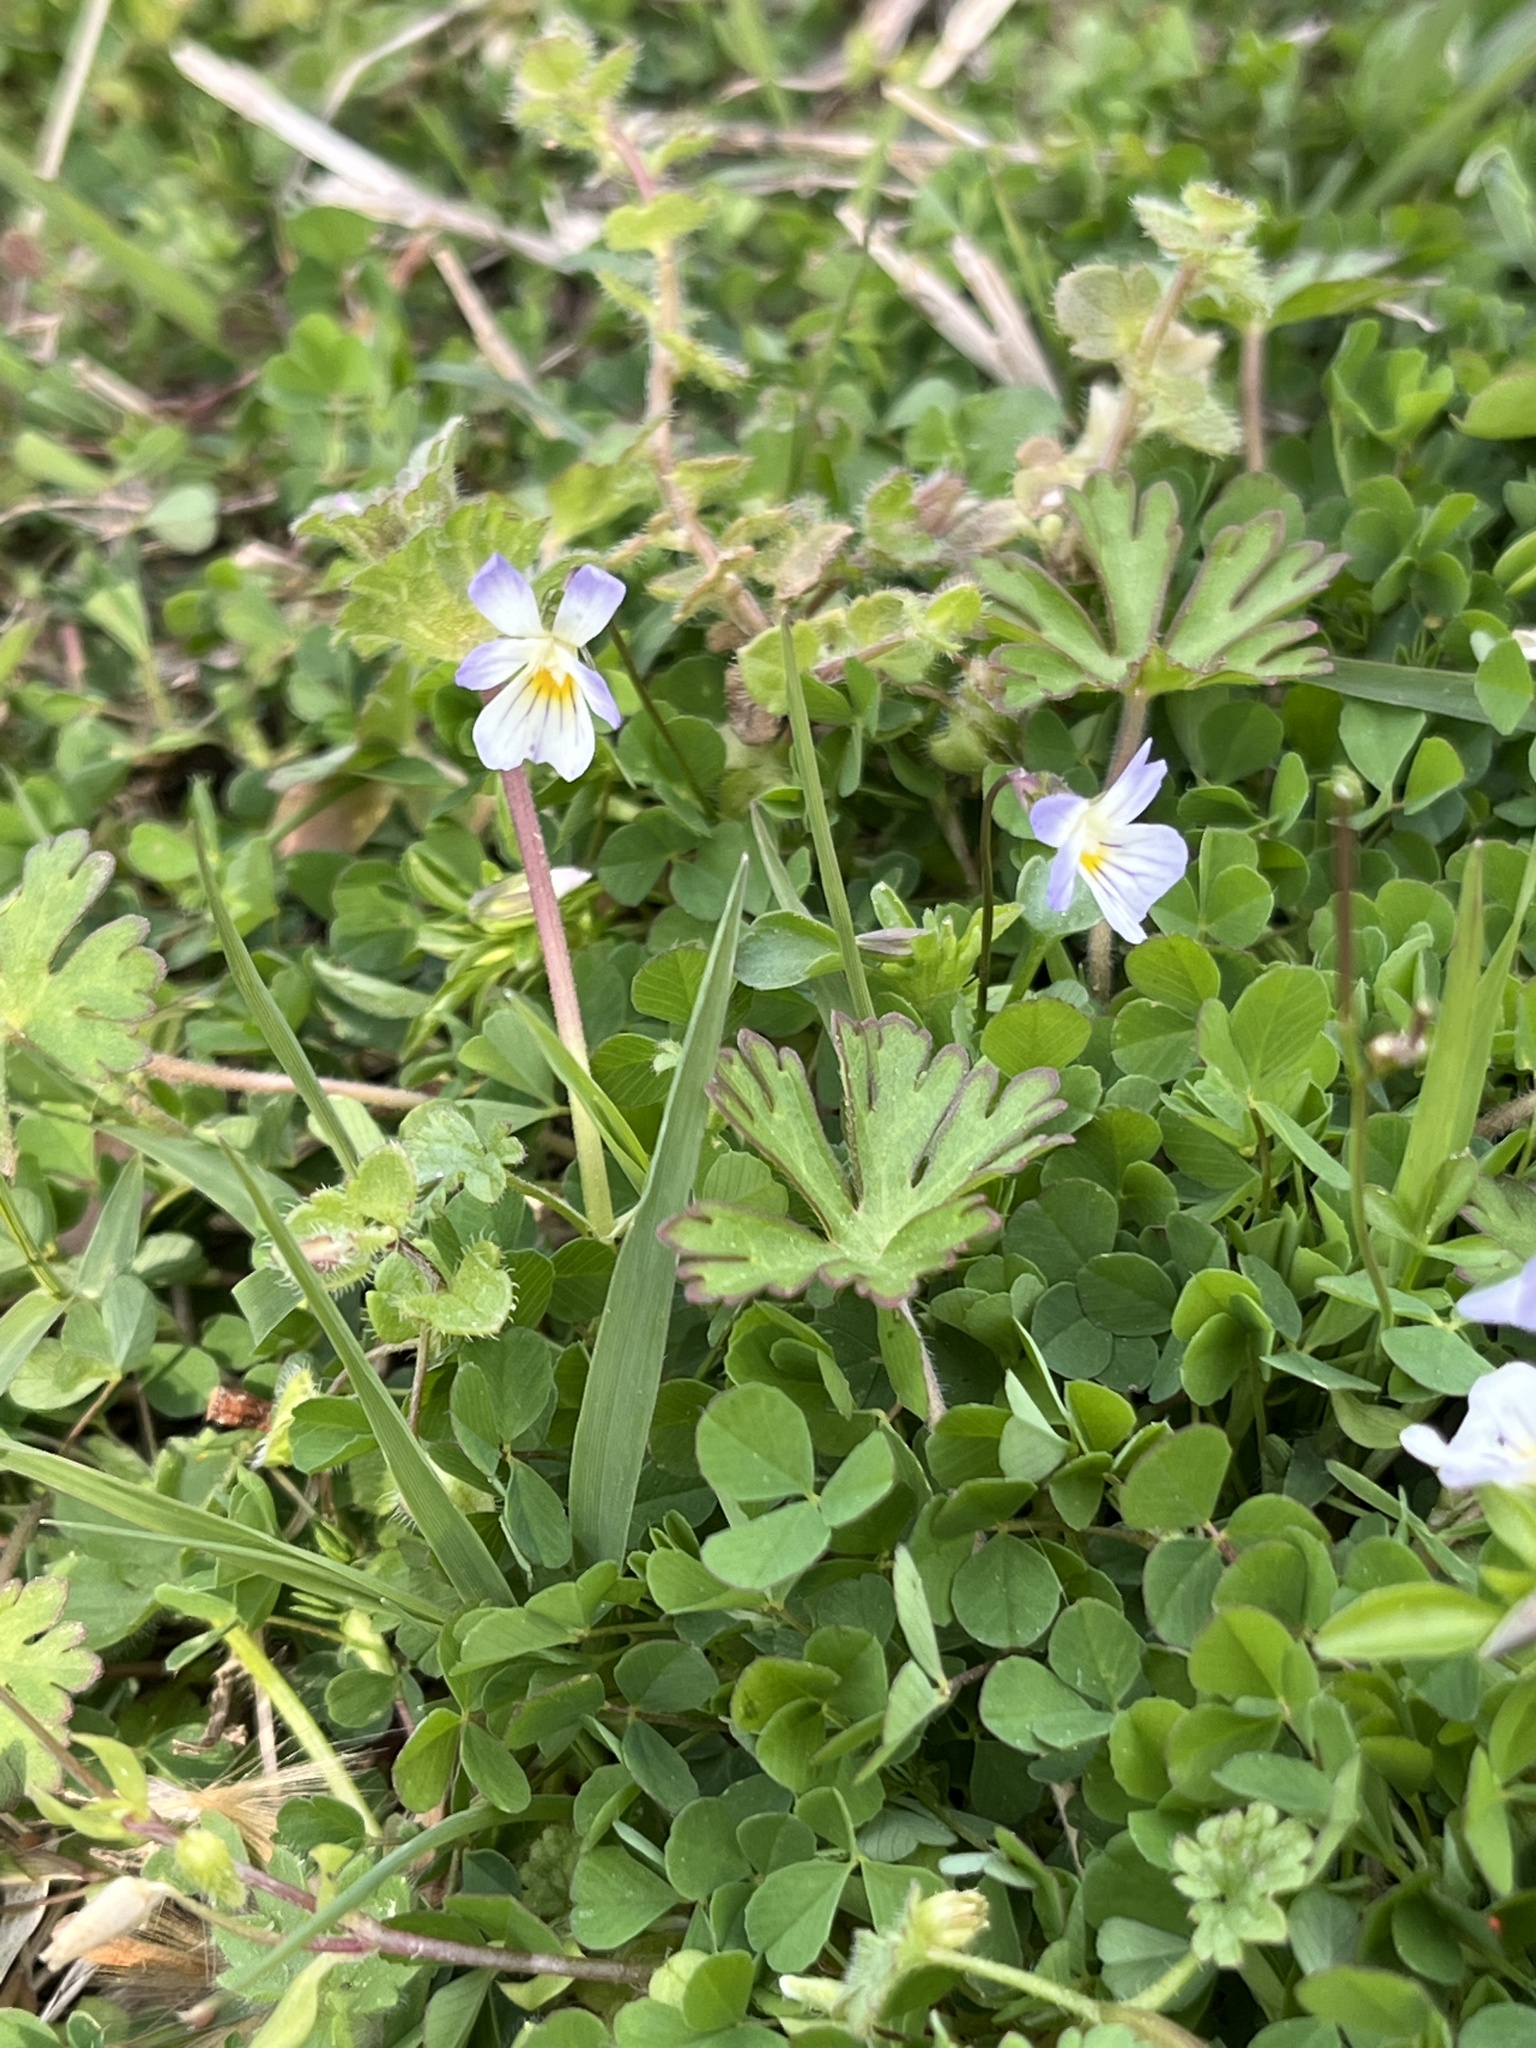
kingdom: Plantae
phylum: Tracheophyta
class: Magnoliopsida
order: Malpighiales
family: Violaceae
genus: Viola
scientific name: Viola rafinesquei
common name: American field pansy
